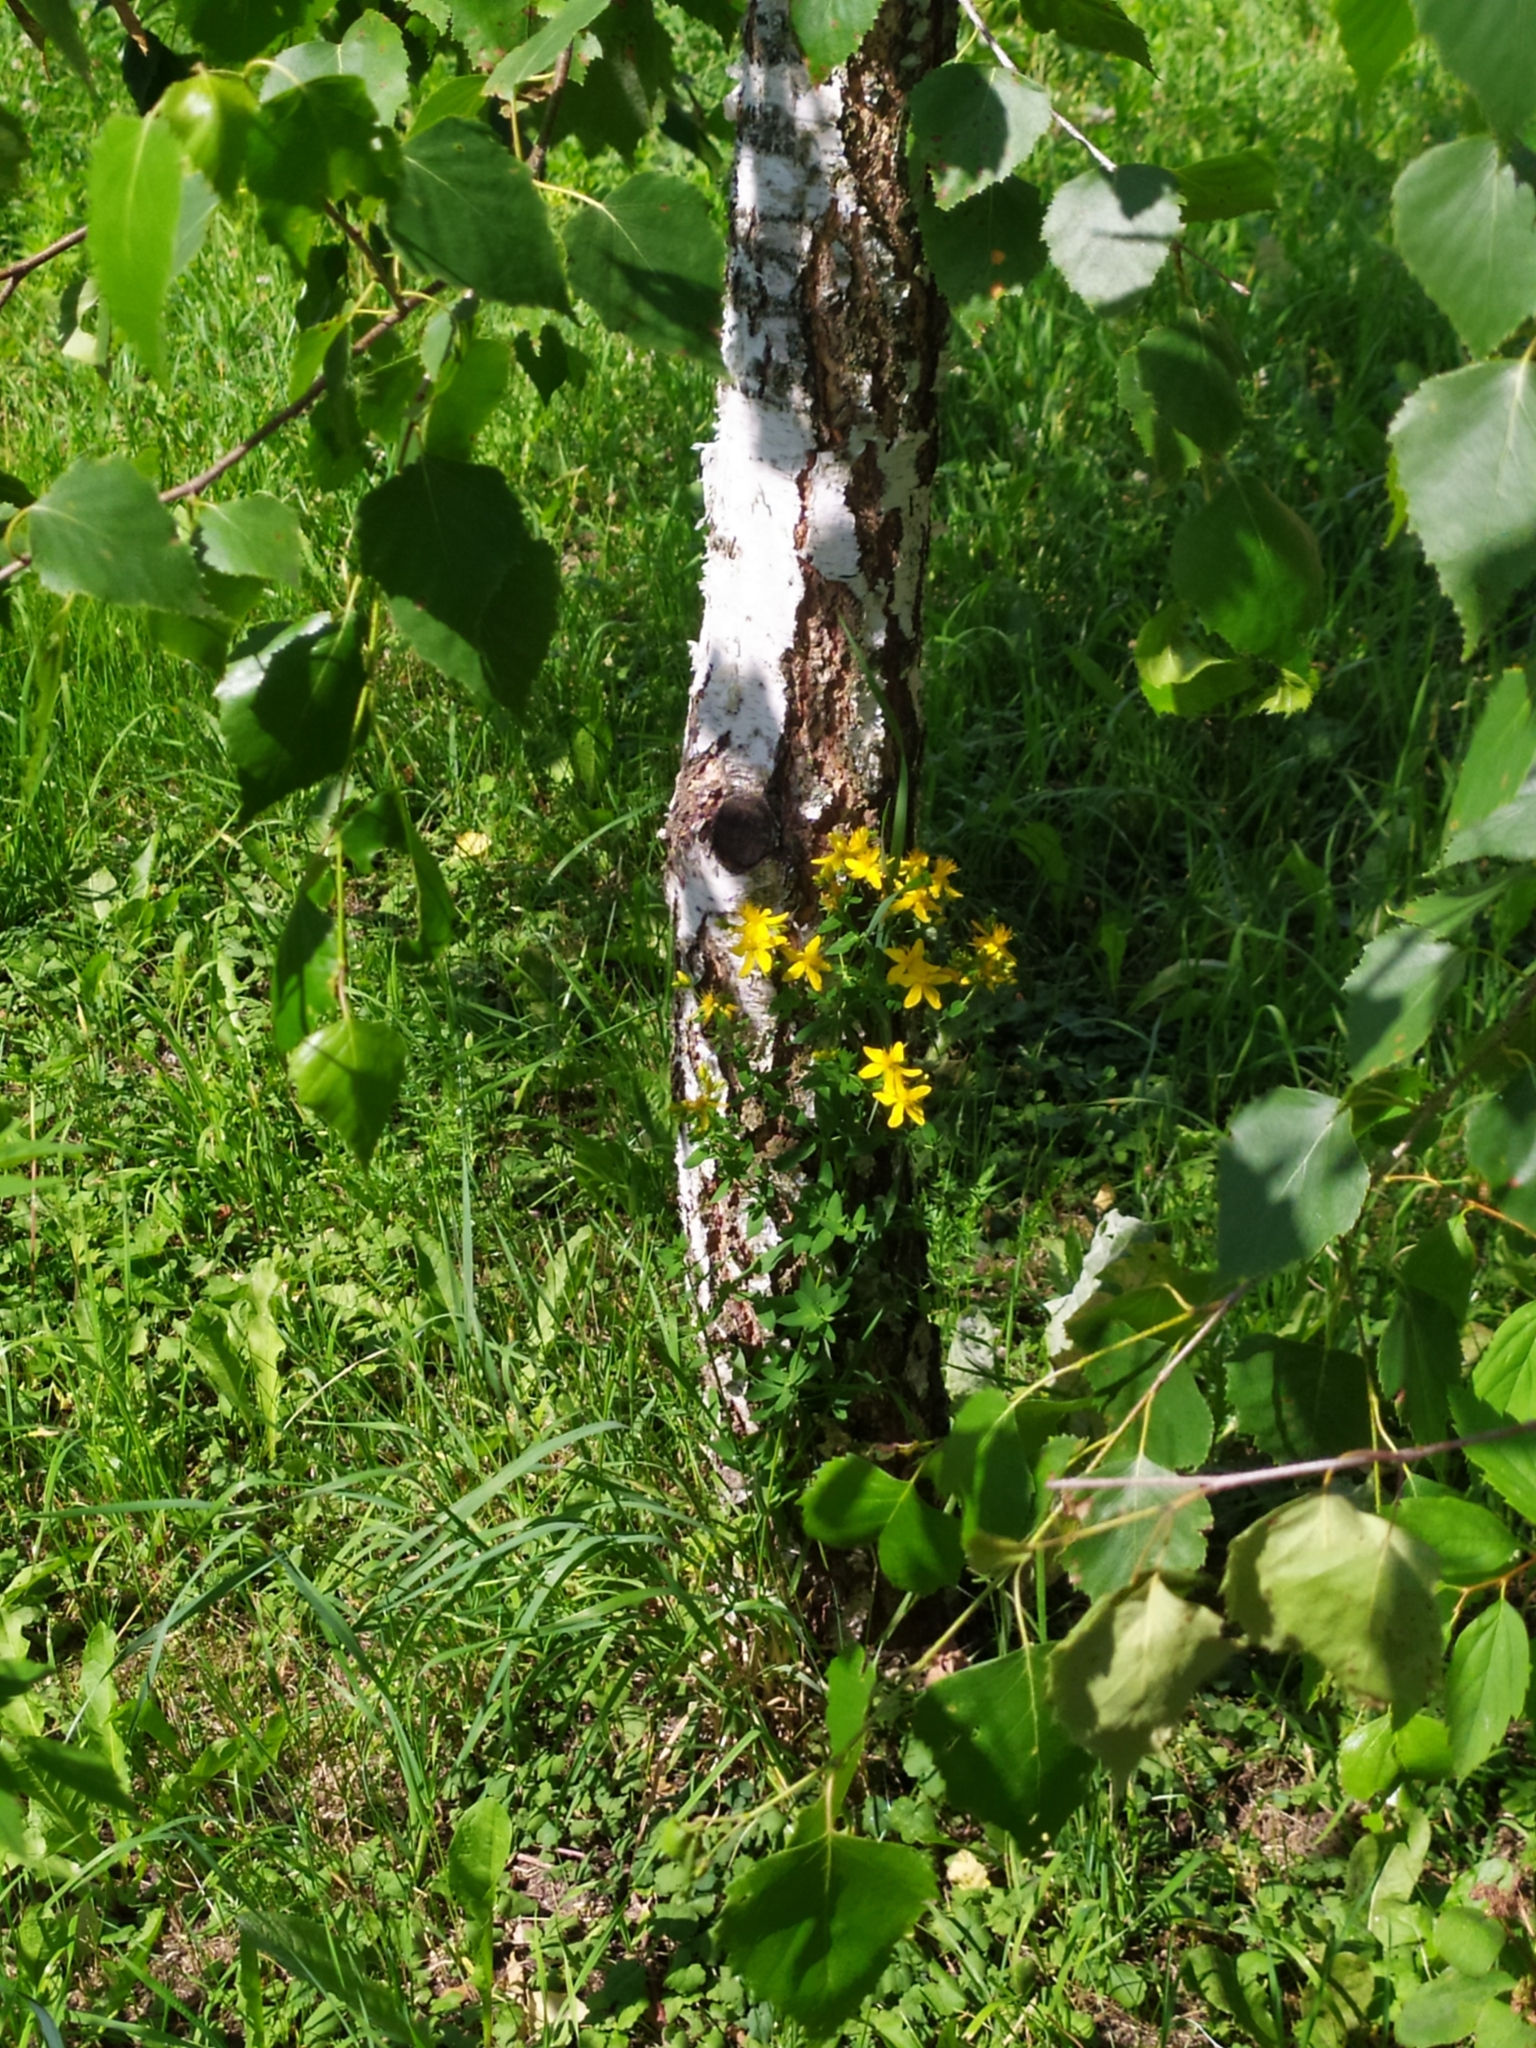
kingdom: Plantae
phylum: Tracheophyta
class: Magnoliopsida
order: Malpighiales
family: Hypericaceae
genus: Hypericum
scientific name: Hypericum perforatum
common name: Common st. johnswort
